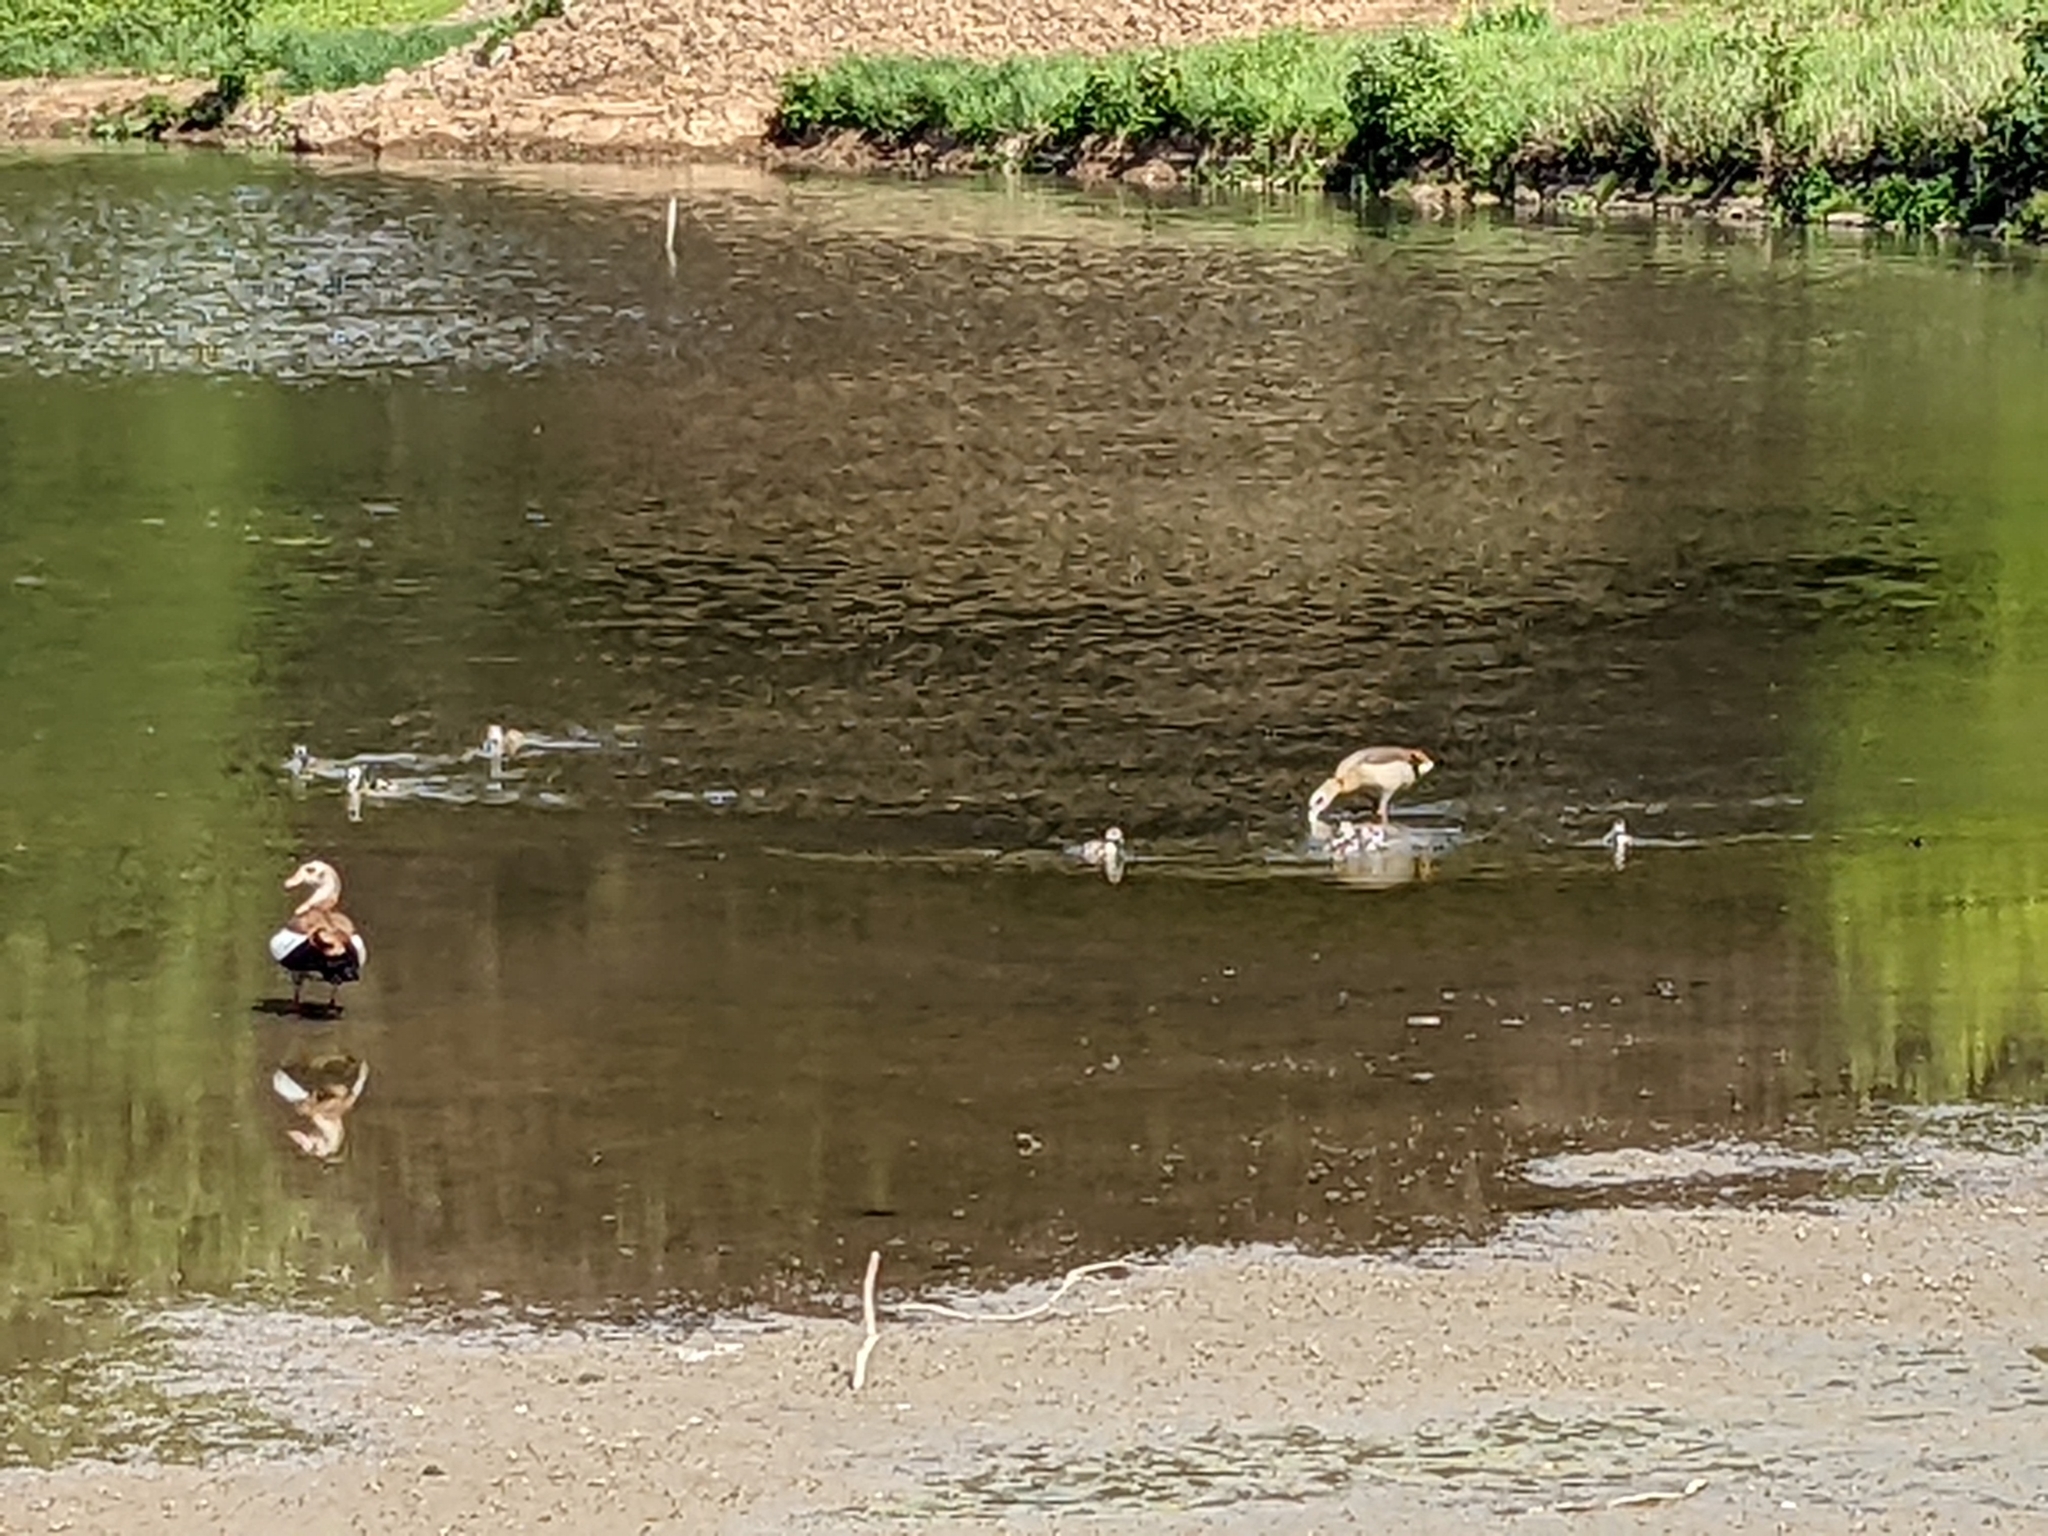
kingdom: Animalia
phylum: Chordata
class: Aves
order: Anseriformes
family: Anatidae
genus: Alopochen
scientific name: Alopochen aegyptiaca
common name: Egyptian goose
